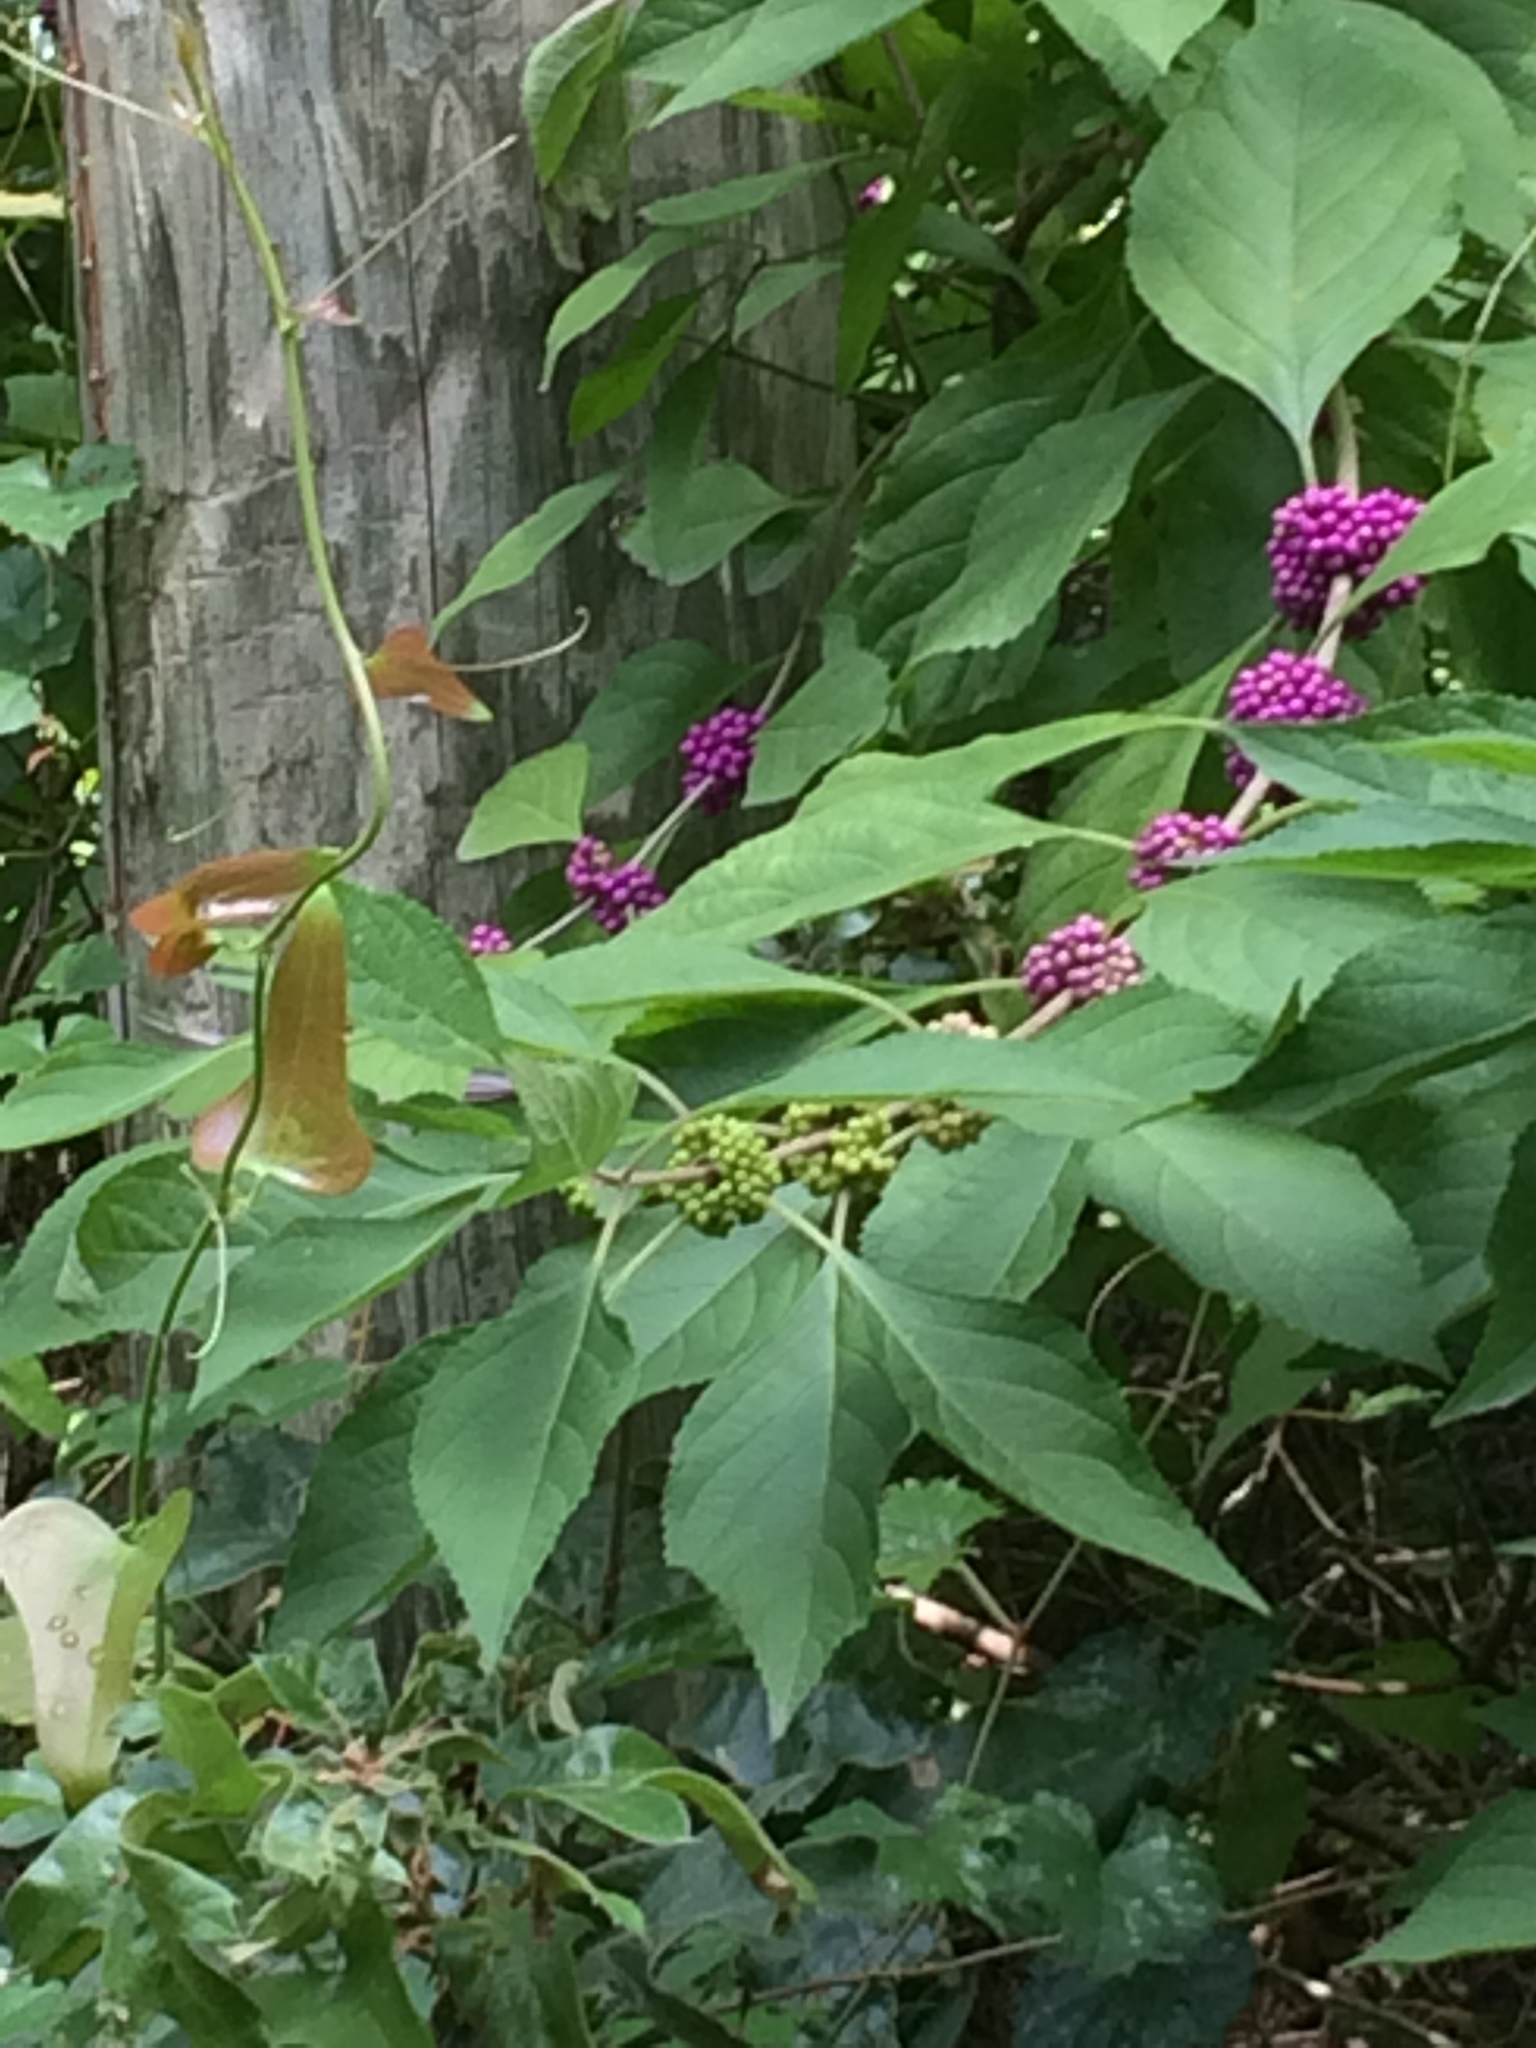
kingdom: Plantae
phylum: Tracheophyta
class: Magnoliopsida
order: Lamiales
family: Lamiaceae
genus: Callicarpa
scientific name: Callicarpa americana
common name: American beautyberry
